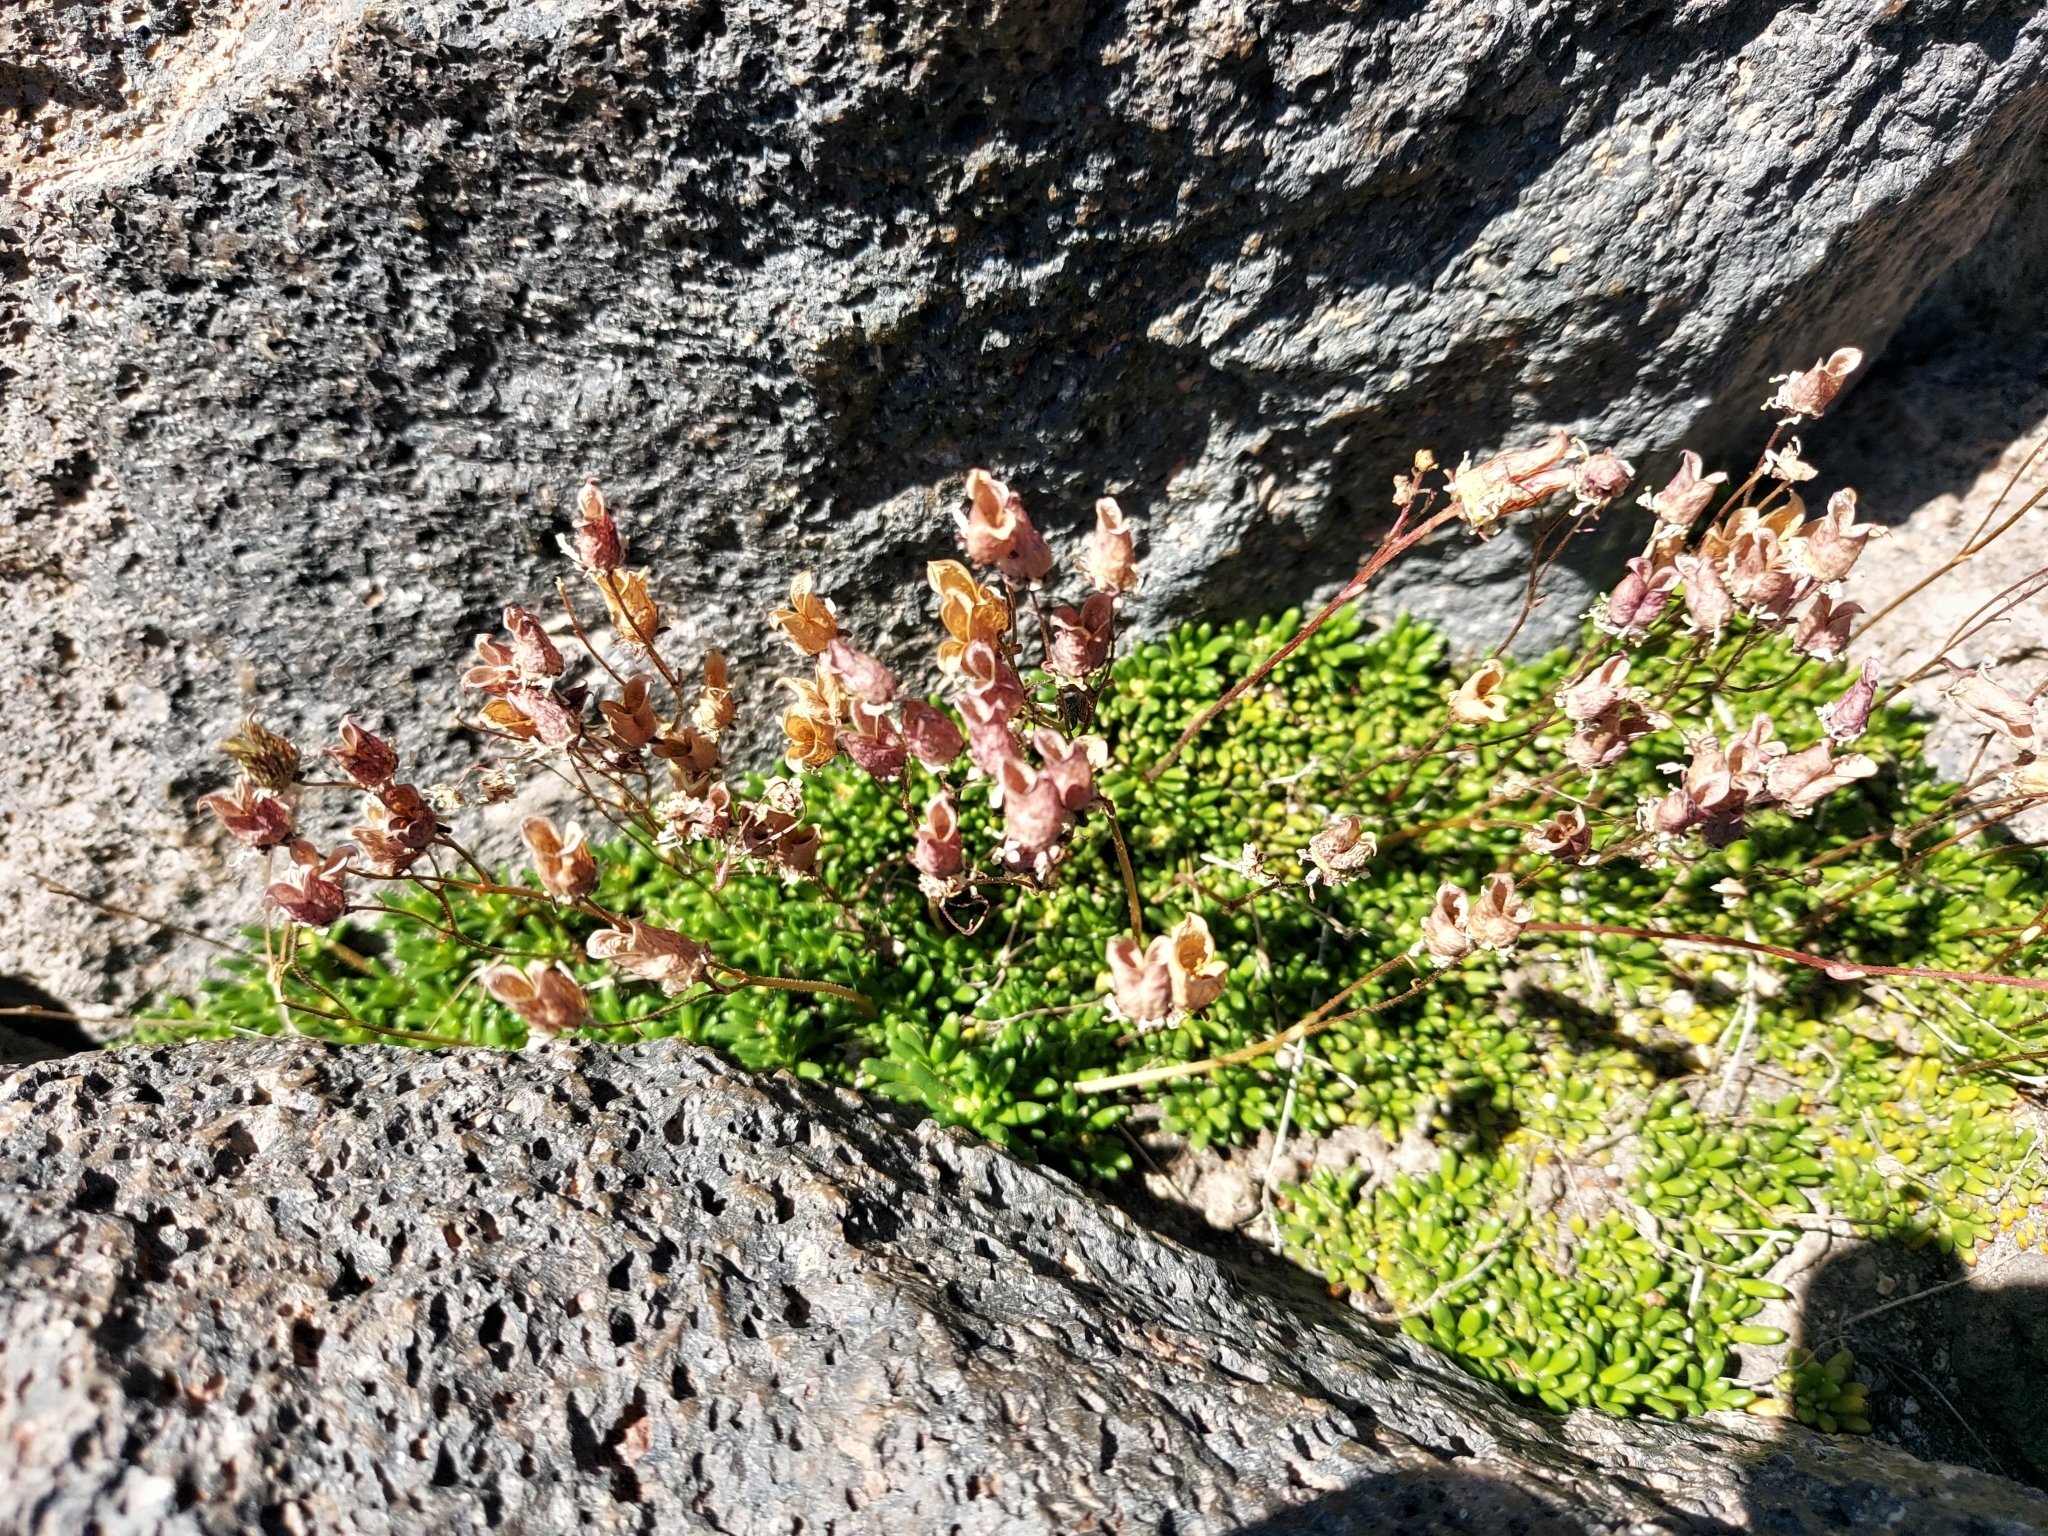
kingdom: Plantae
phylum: Tracheophyta
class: Magnoliopsida
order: Saxifragales
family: Saxifragaceae
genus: Micranthes
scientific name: Micranthes tolmiei
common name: Tolmie's saxifrage
